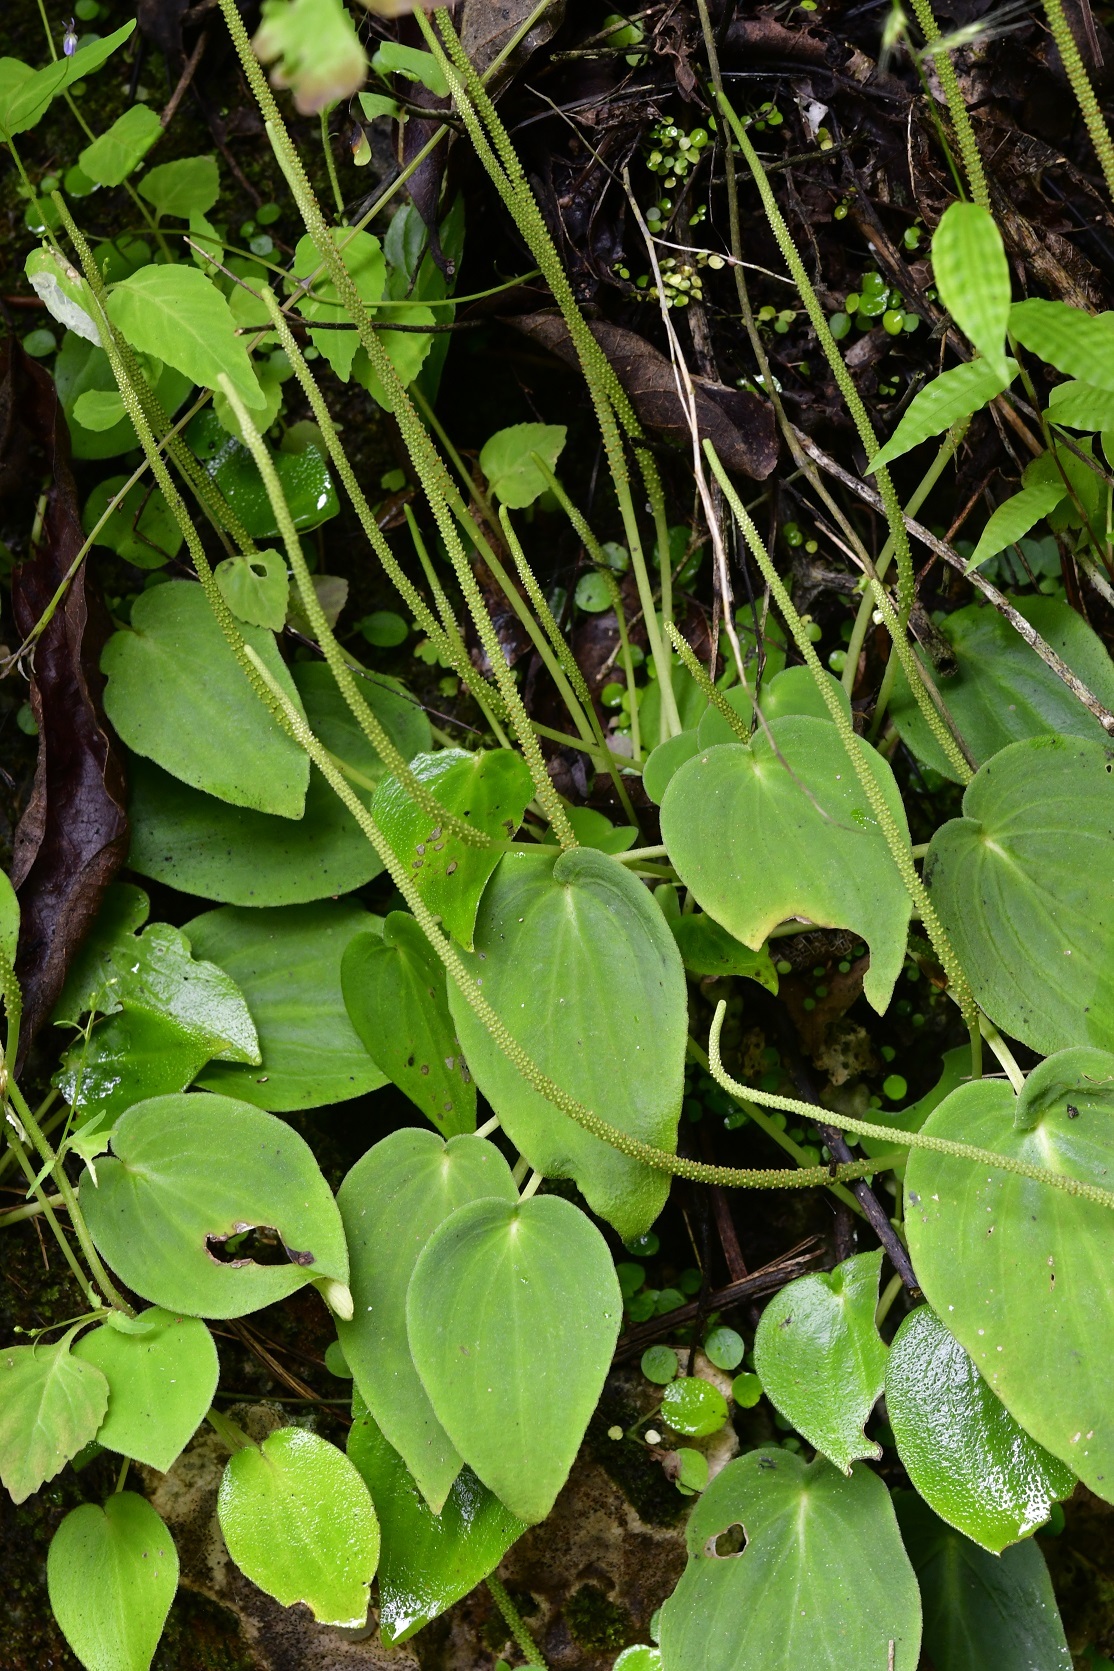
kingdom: Plantae
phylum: Tracheophyta
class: Magnoliopsida
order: Piperales
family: Piperaceae
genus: Peperomia
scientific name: Peperomia lanceolatopeltata
